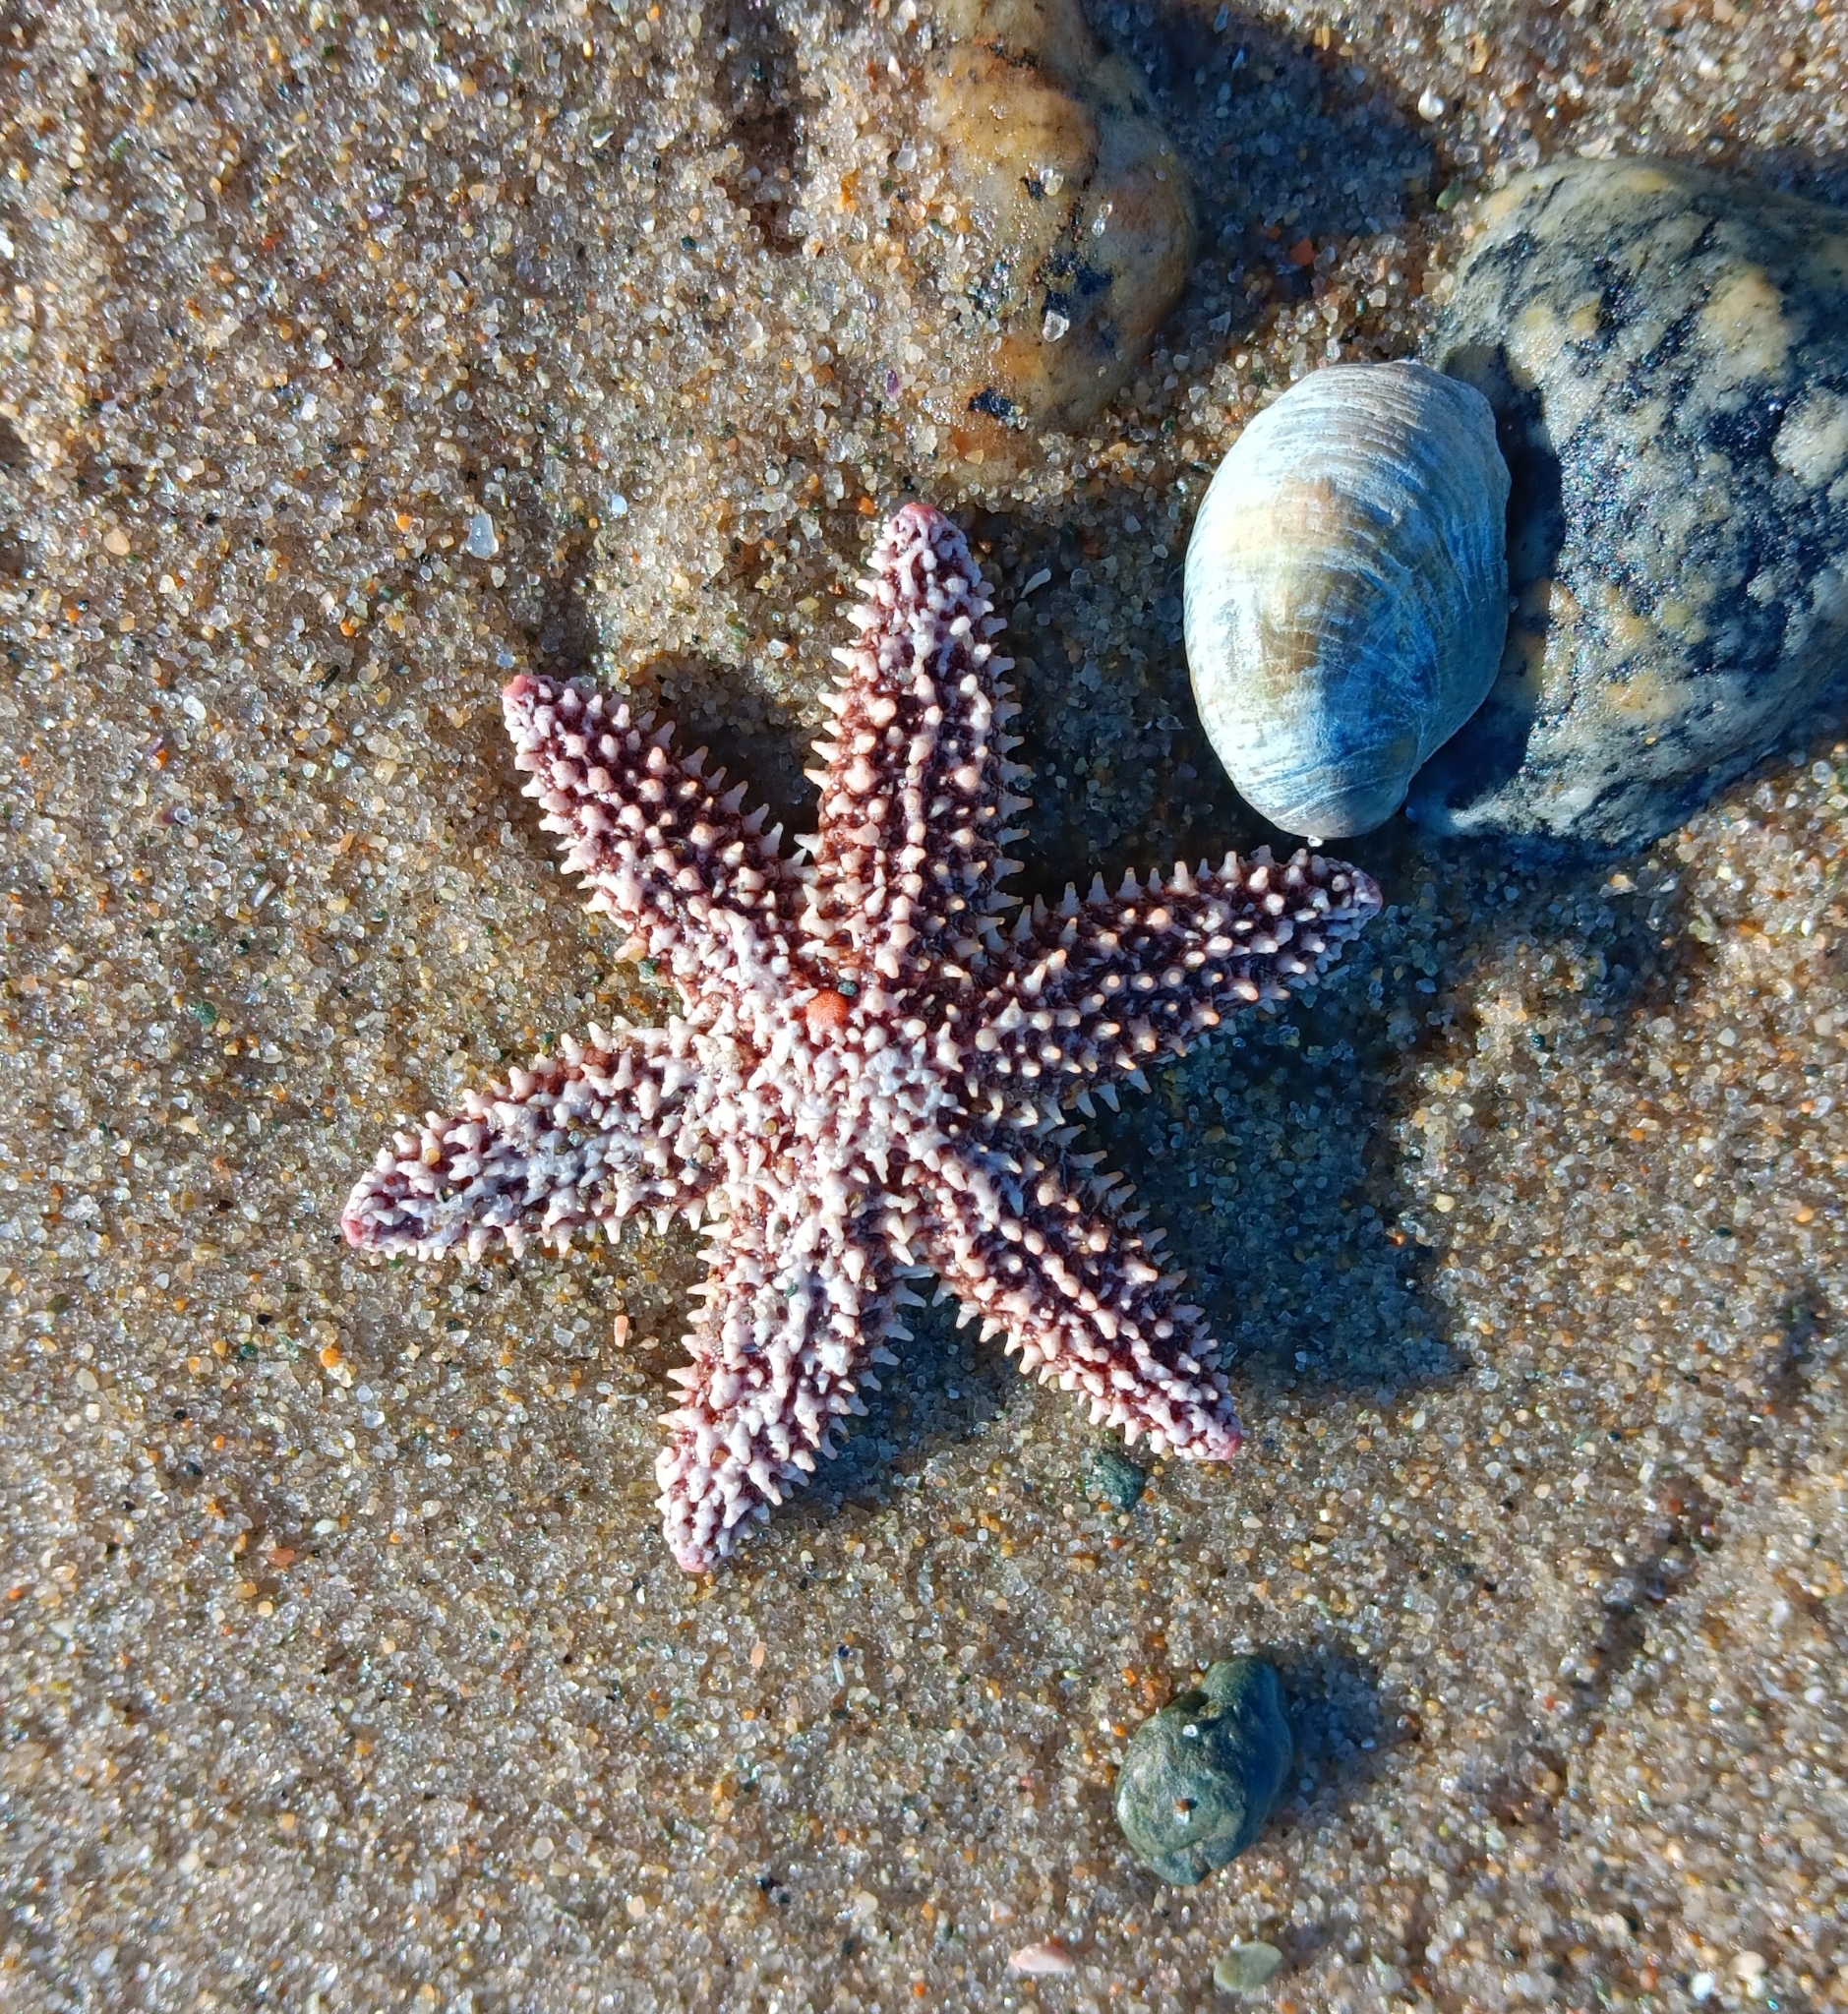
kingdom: Animalia
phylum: Echinodermata
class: Asteroidea
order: Forcipulatida
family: Asteriidae
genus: Asterias
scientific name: Asterias forbesi
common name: Forbes's sea star
